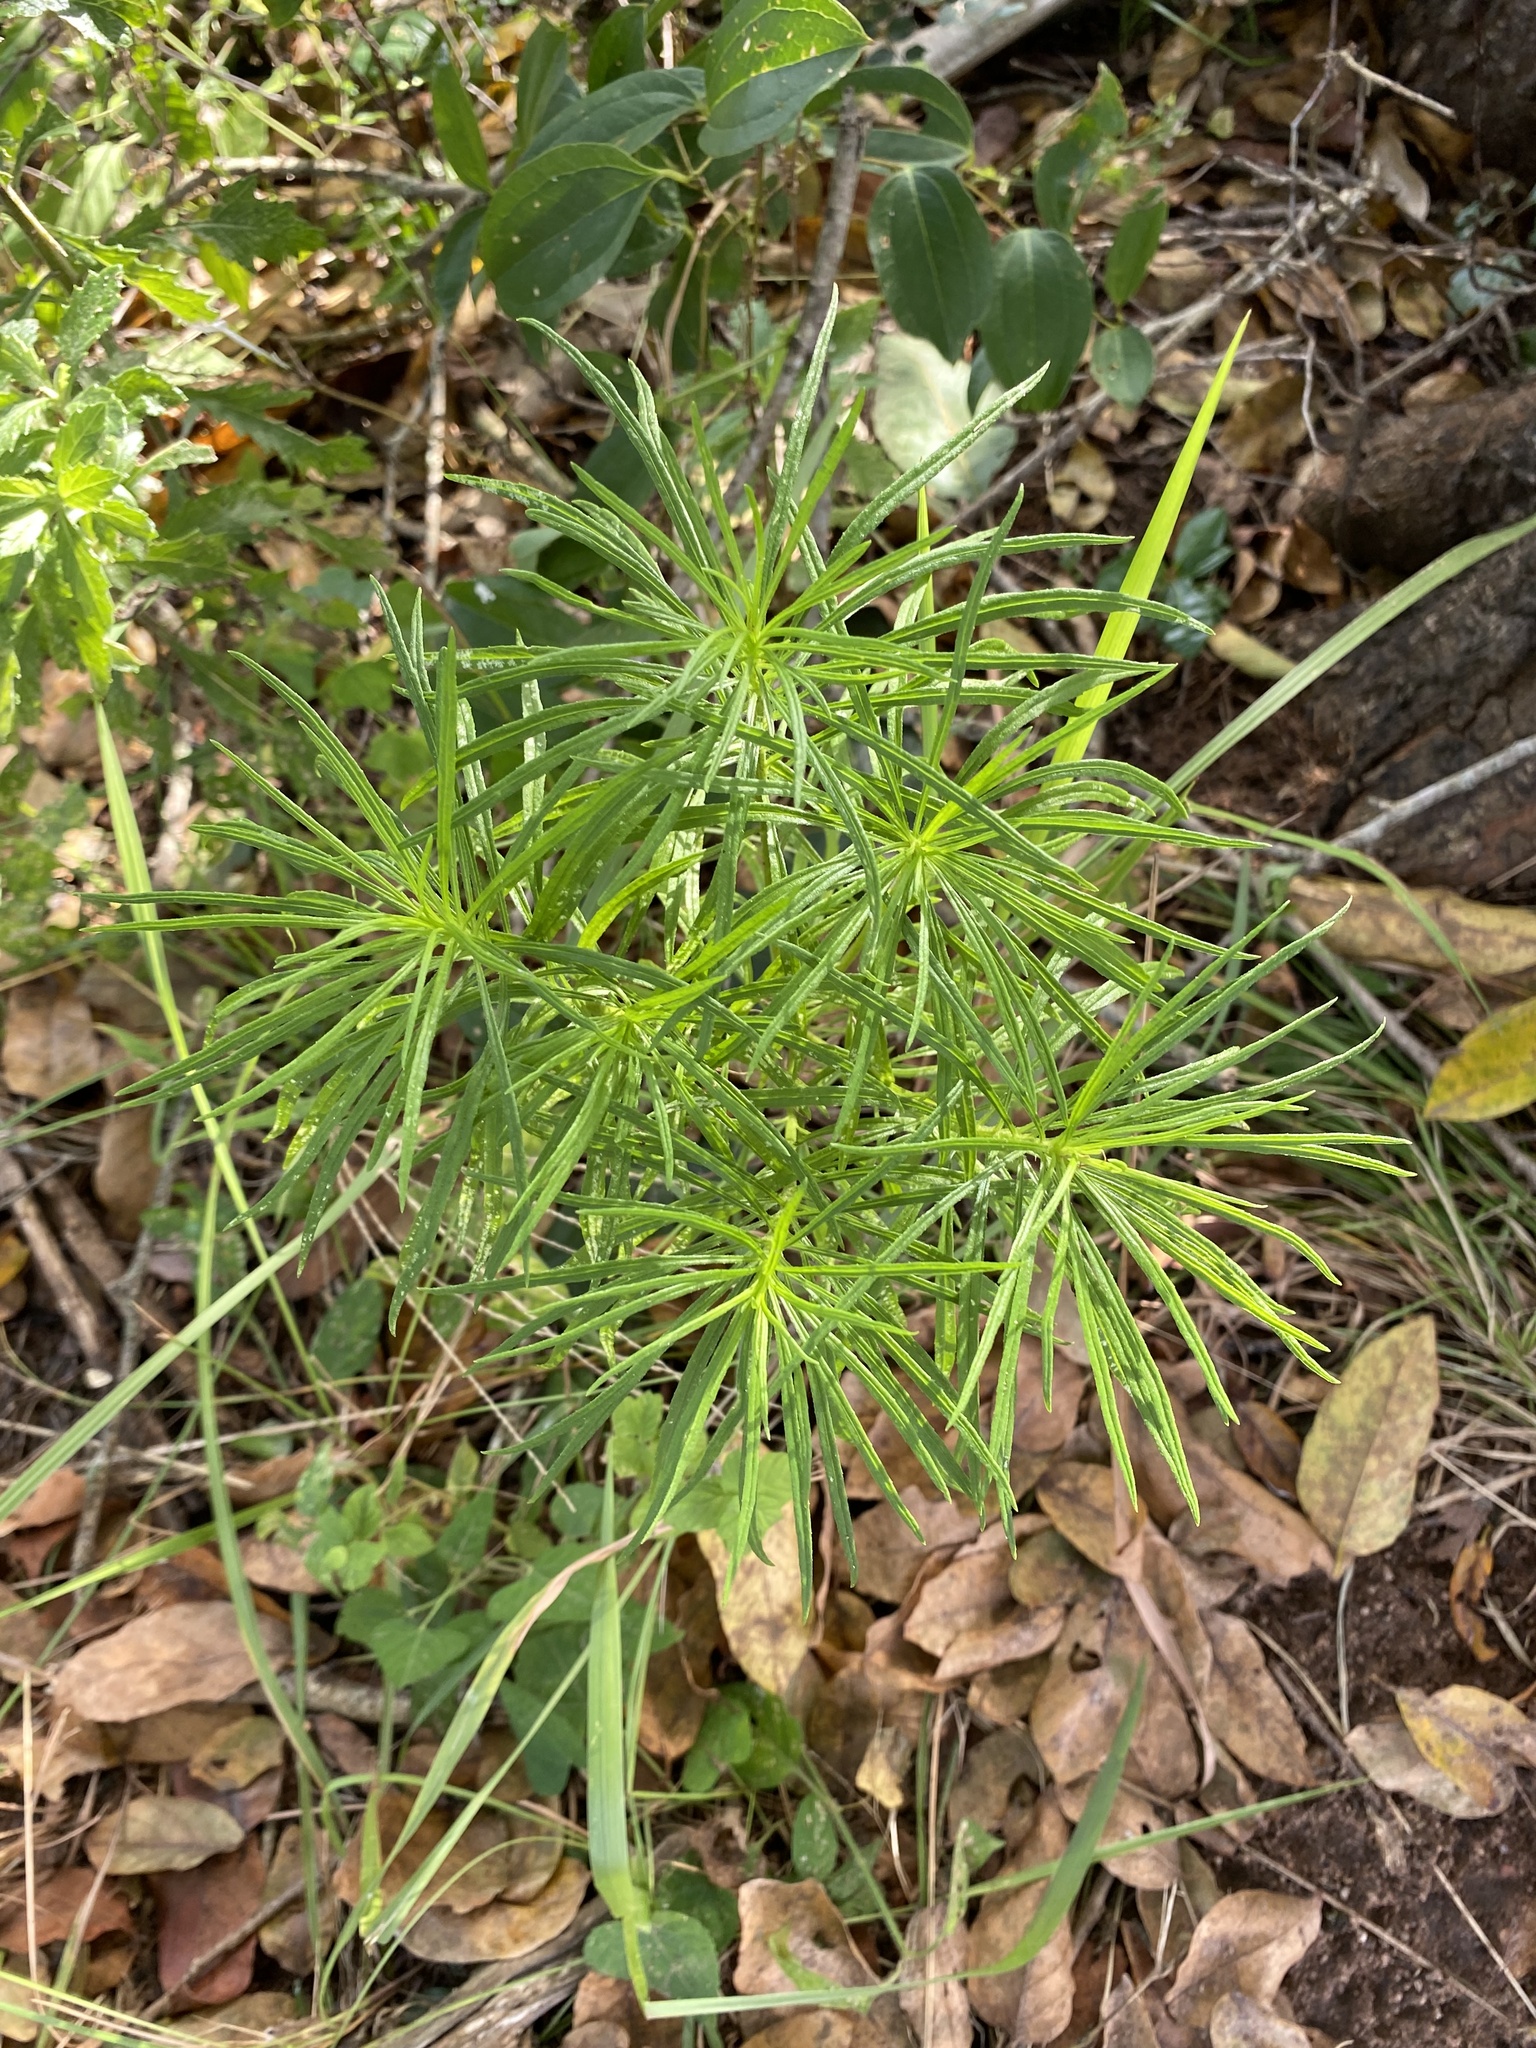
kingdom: Plantae
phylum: Tracheophyta
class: Magnoliopsida
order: Asterales
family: Asteraceae
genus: Senecio
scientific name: Senecio chrysocoma
